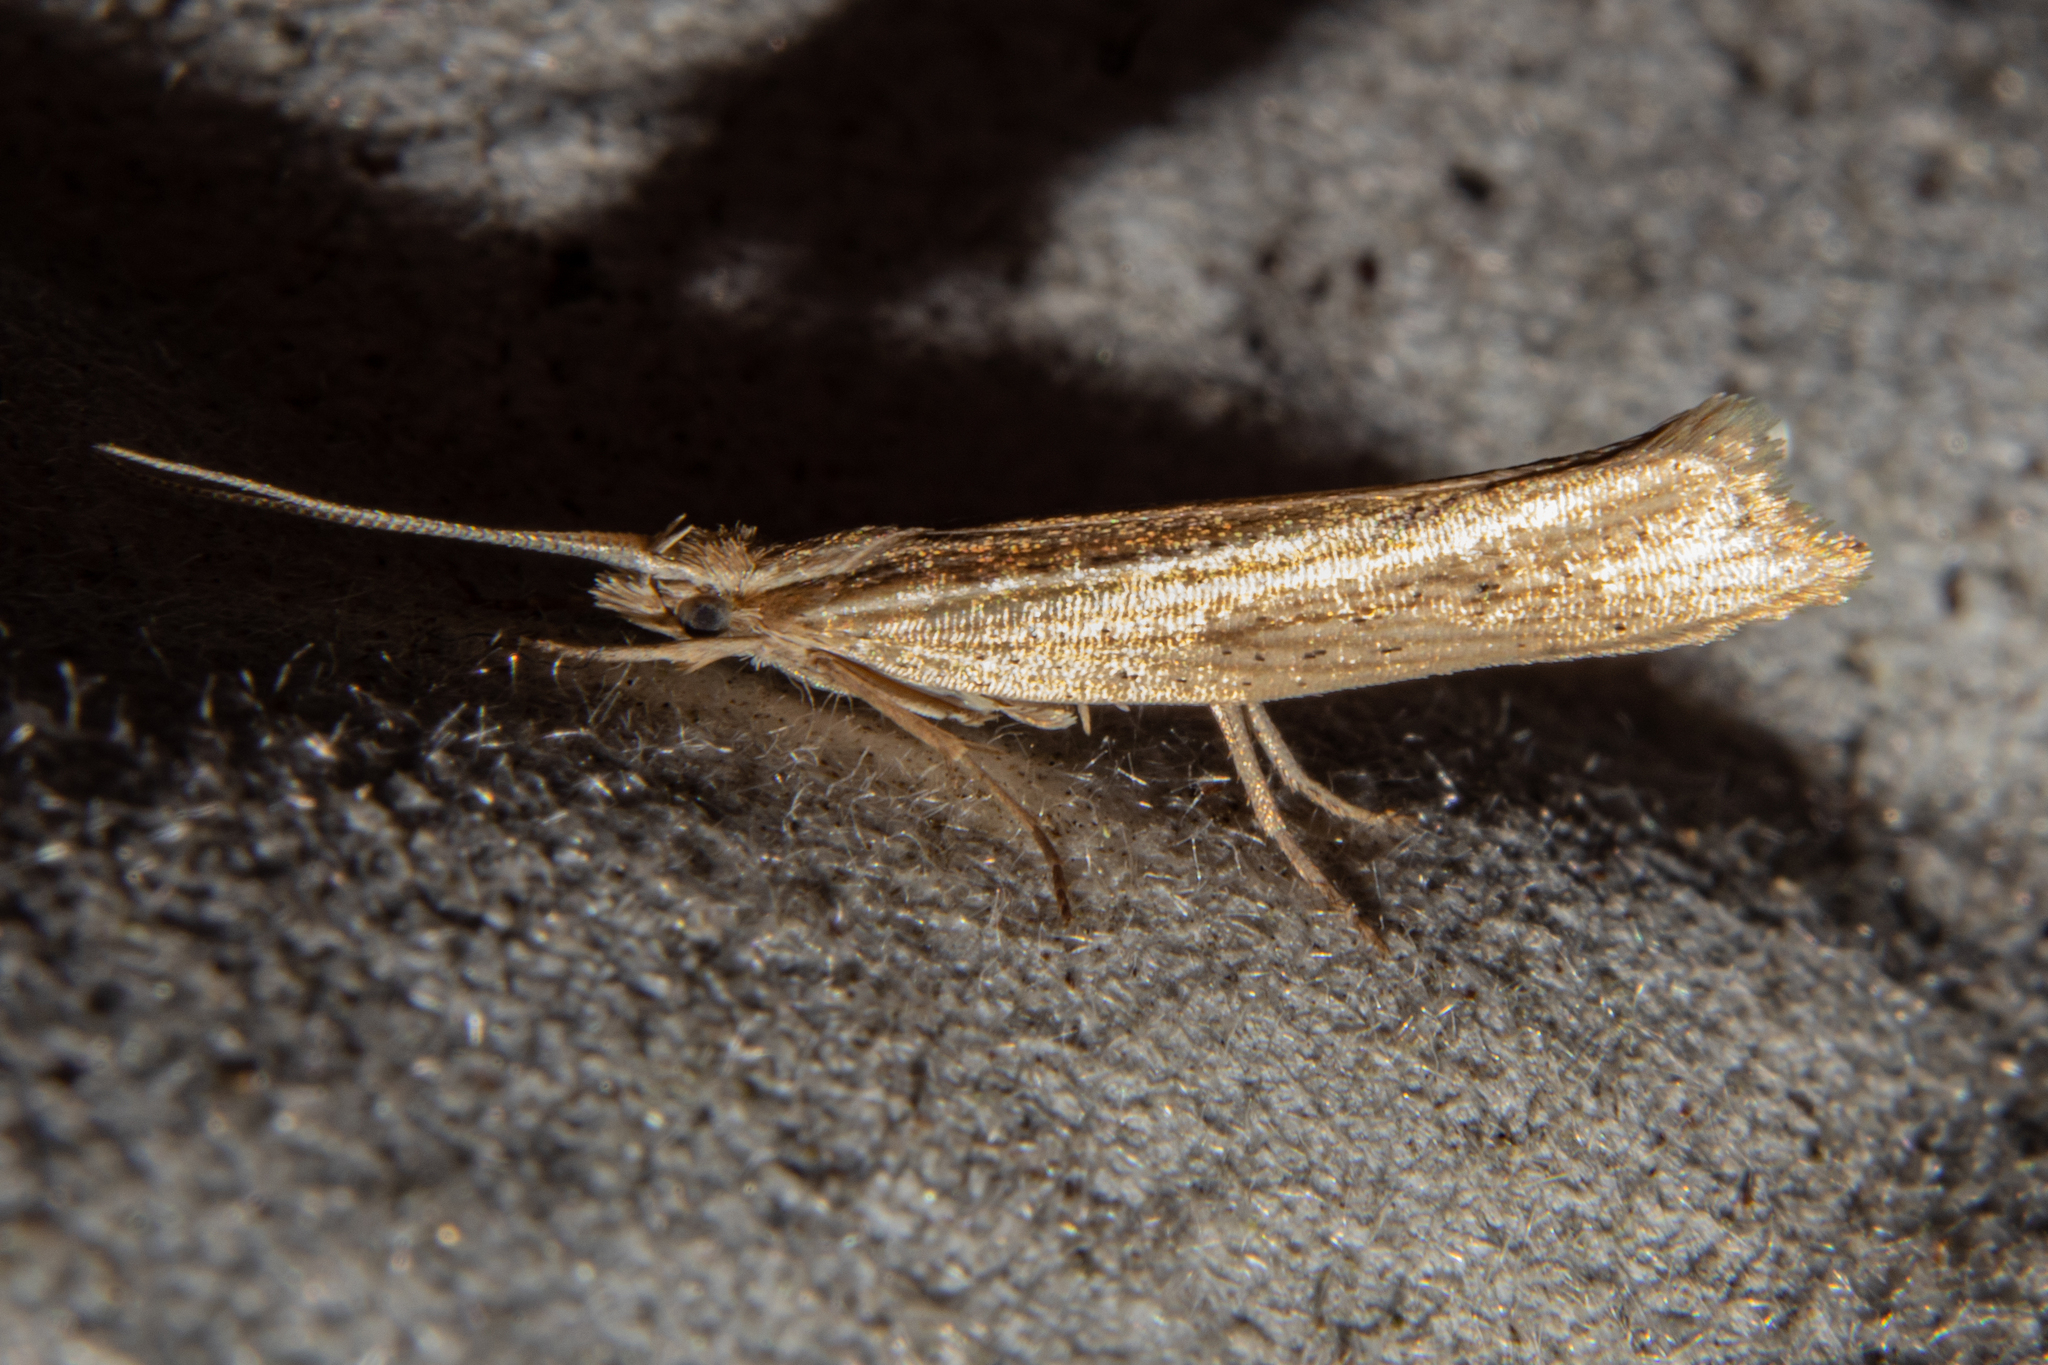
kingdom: Animalia
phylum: Arthropoda
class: Insecta
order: Lepidoptera
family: Plutellidae
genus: Plutella
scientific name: Plutella
